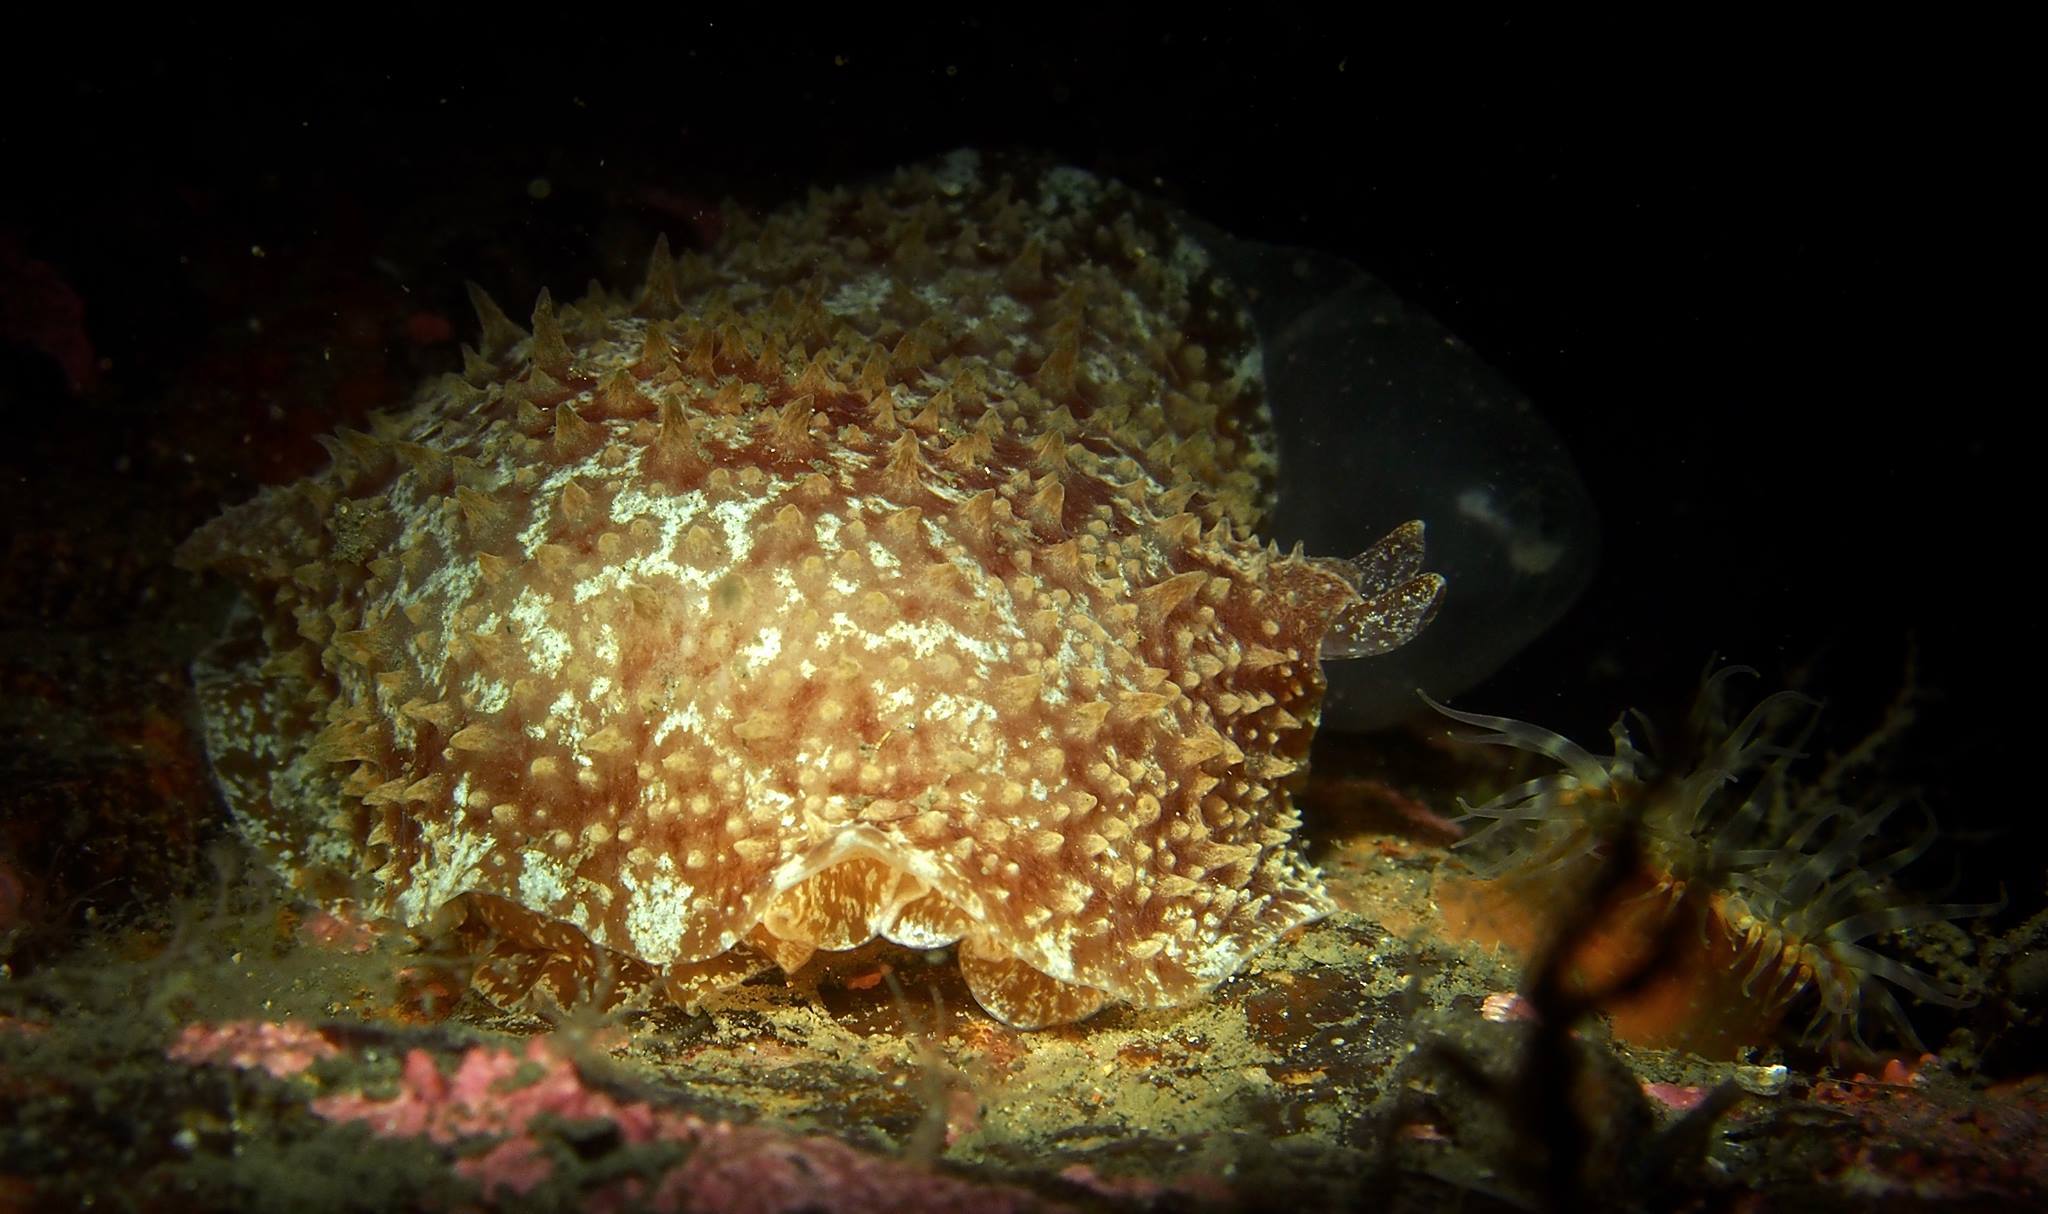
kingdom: Animalia
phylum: Mollusca
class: Gastropoda
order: Pleurobranchida
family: Pleurobranchidae
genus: Pleurobranchus
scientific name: Pleurobranchus membranaceus
